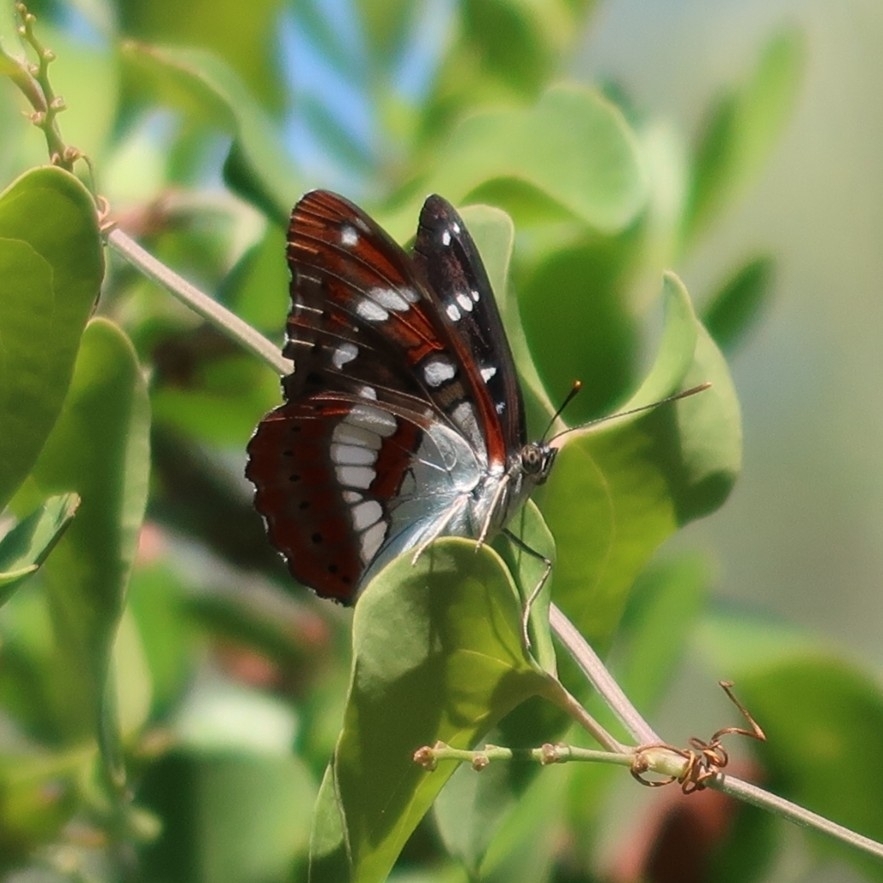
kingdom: Animalia
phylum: Arthropoda
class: Insecta
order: Lepidoptera
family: Nymphalidae
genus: Limenitis
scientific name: Limenitis reducta
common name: Southern white admiral
